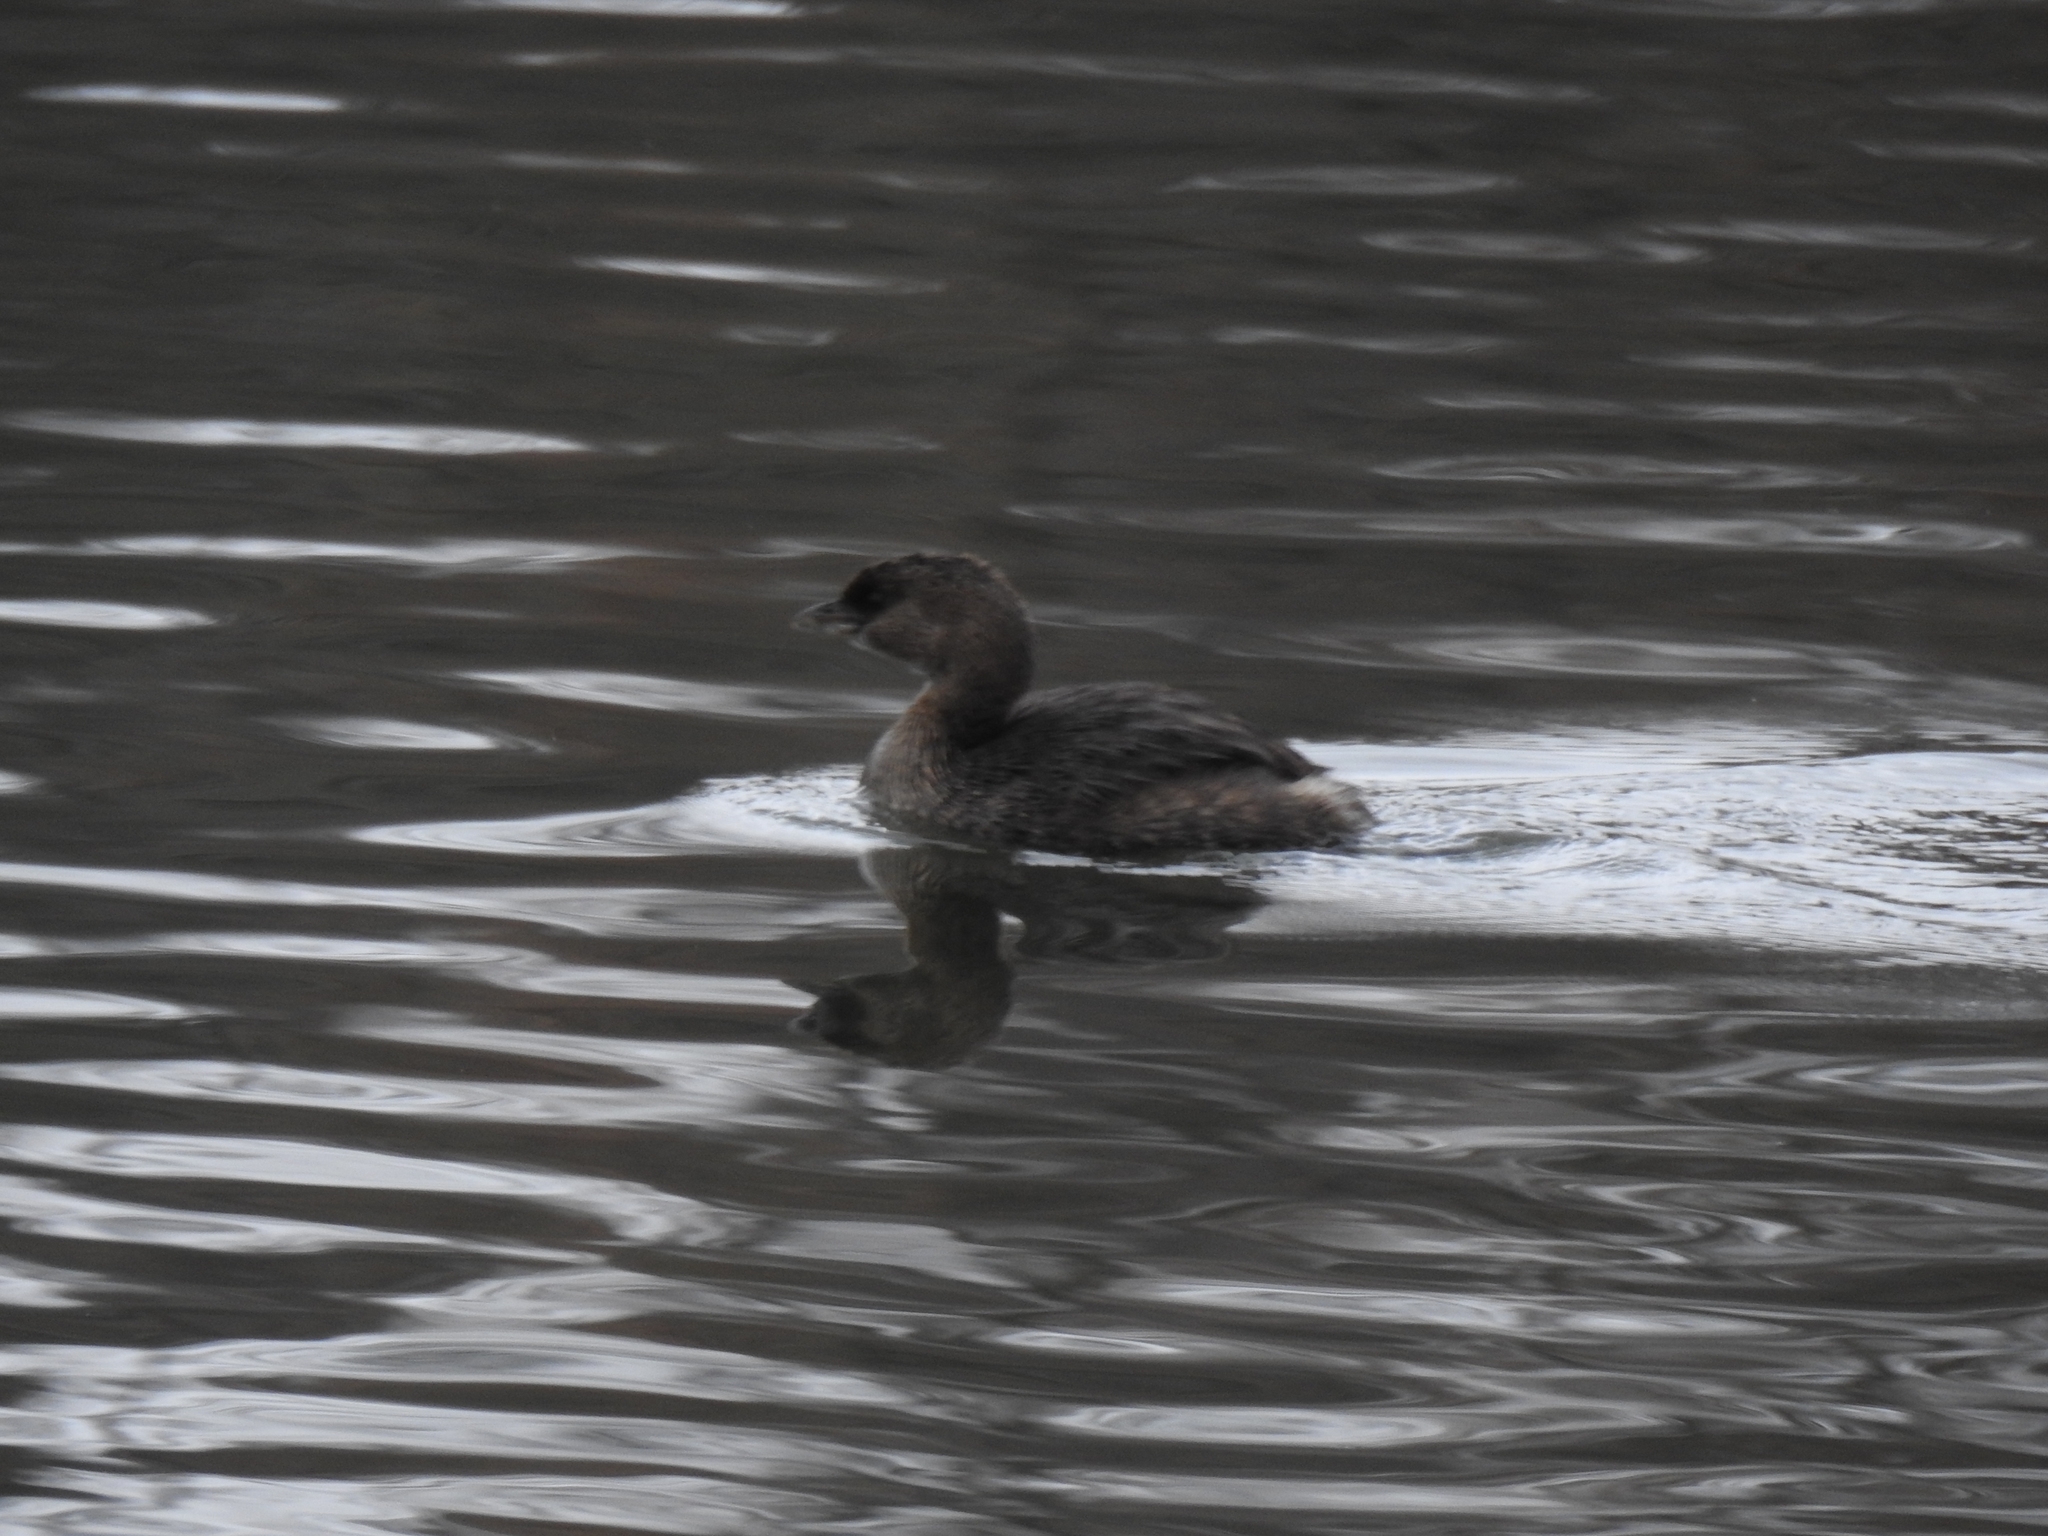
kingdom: Animalia
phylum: Chordata
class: Aves
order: Podicipediformes
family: Podicipedidae
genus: Podilymbus
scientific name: Podilymbus podiceps
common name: Pied-billed grebe
